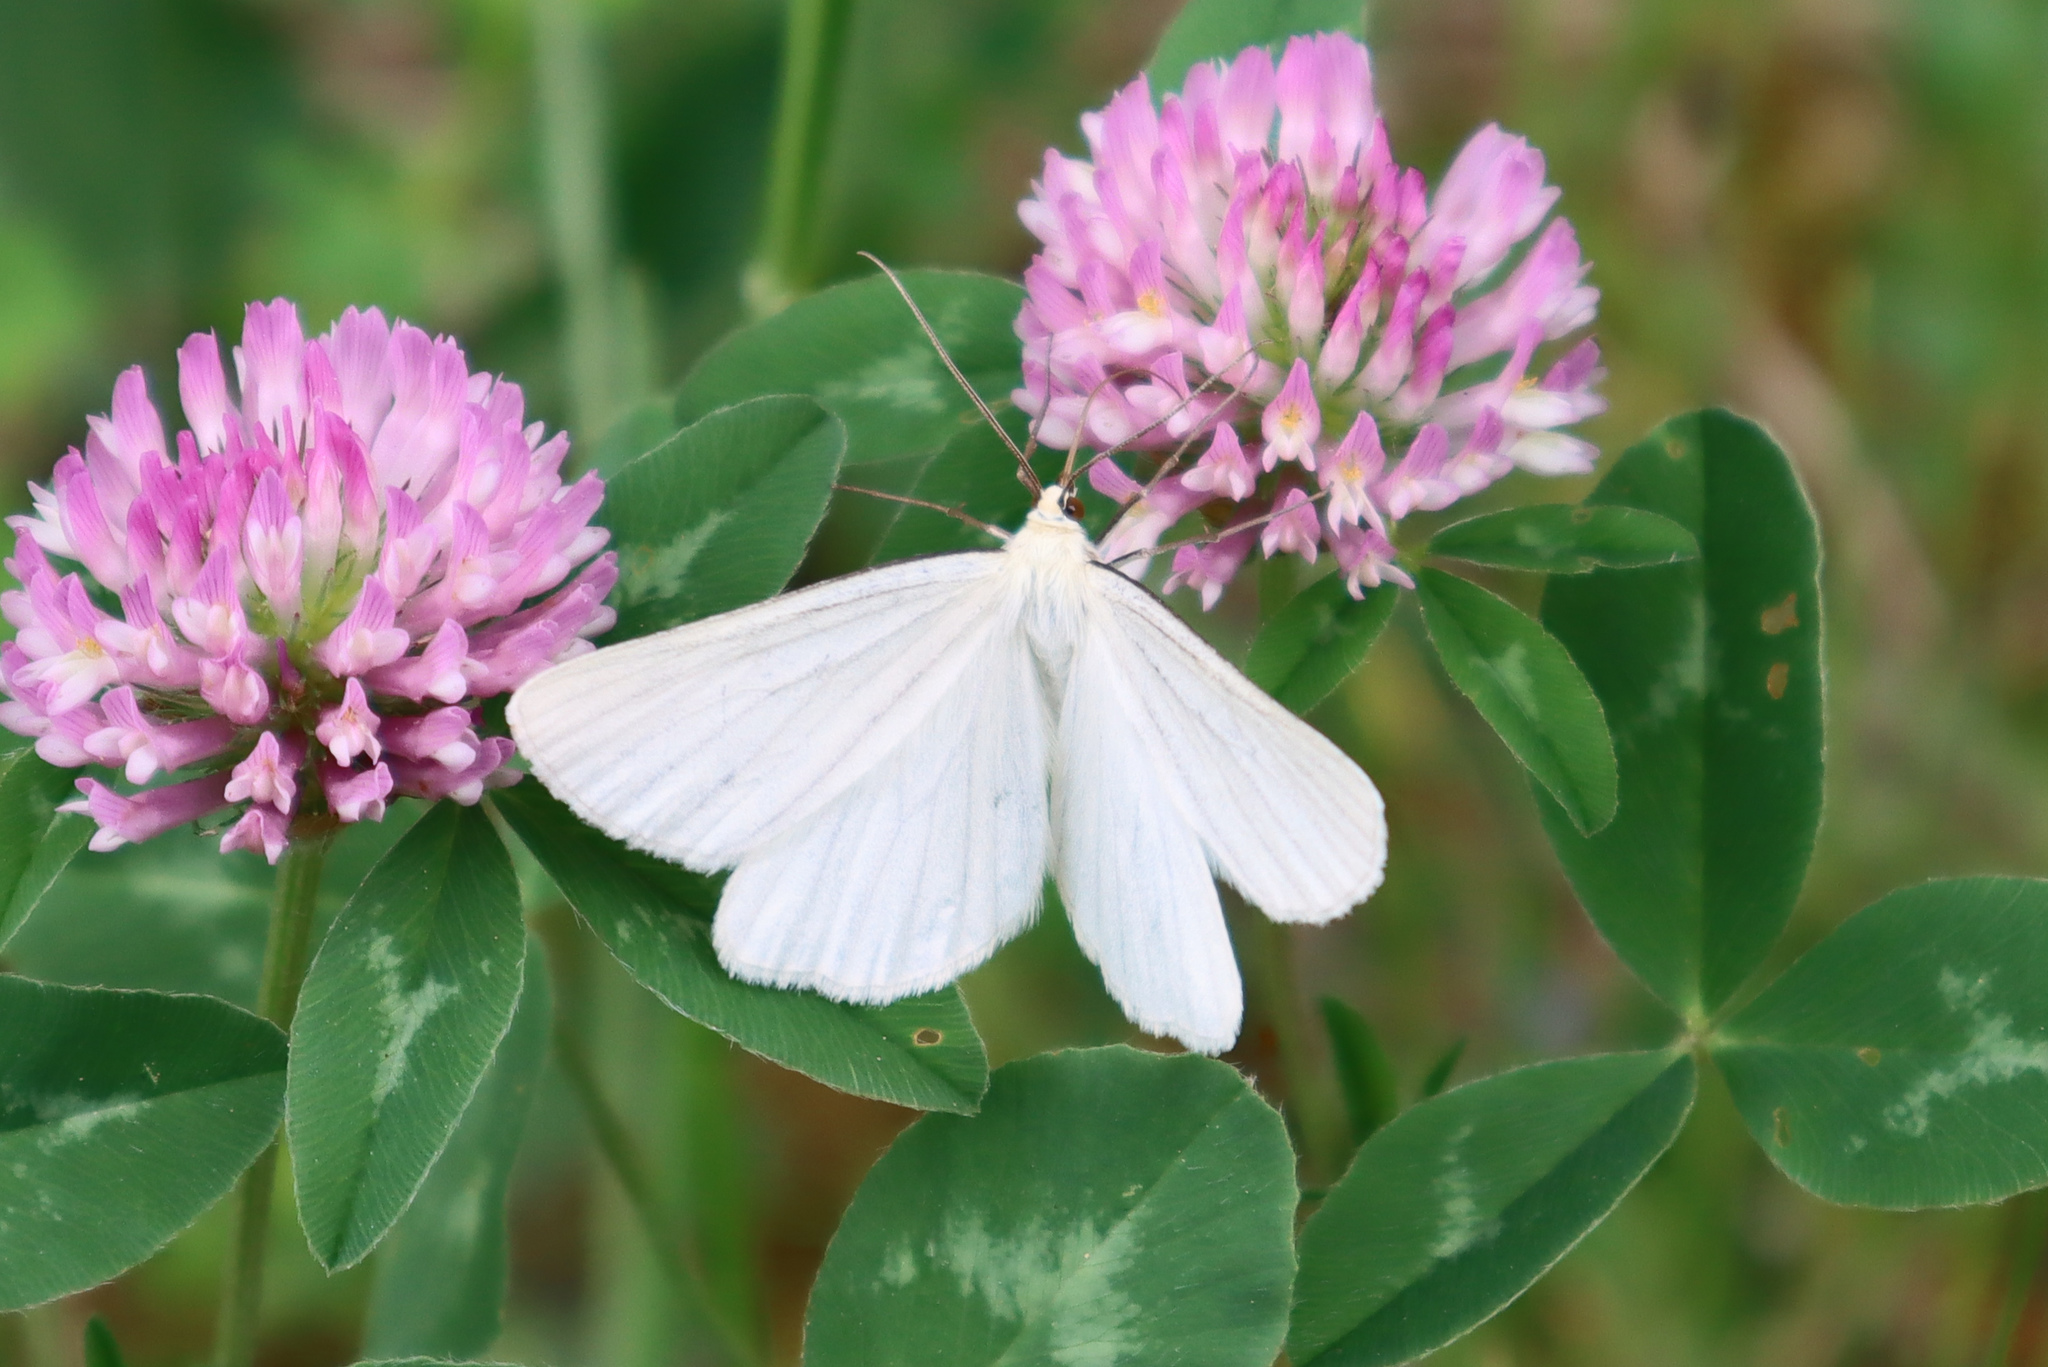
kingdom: Animalia
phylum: Arthropoda
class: Insecta
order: Lepidoptera
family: Geometridae
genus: Siona
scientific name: Siona lineata
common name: Black-veined moth
